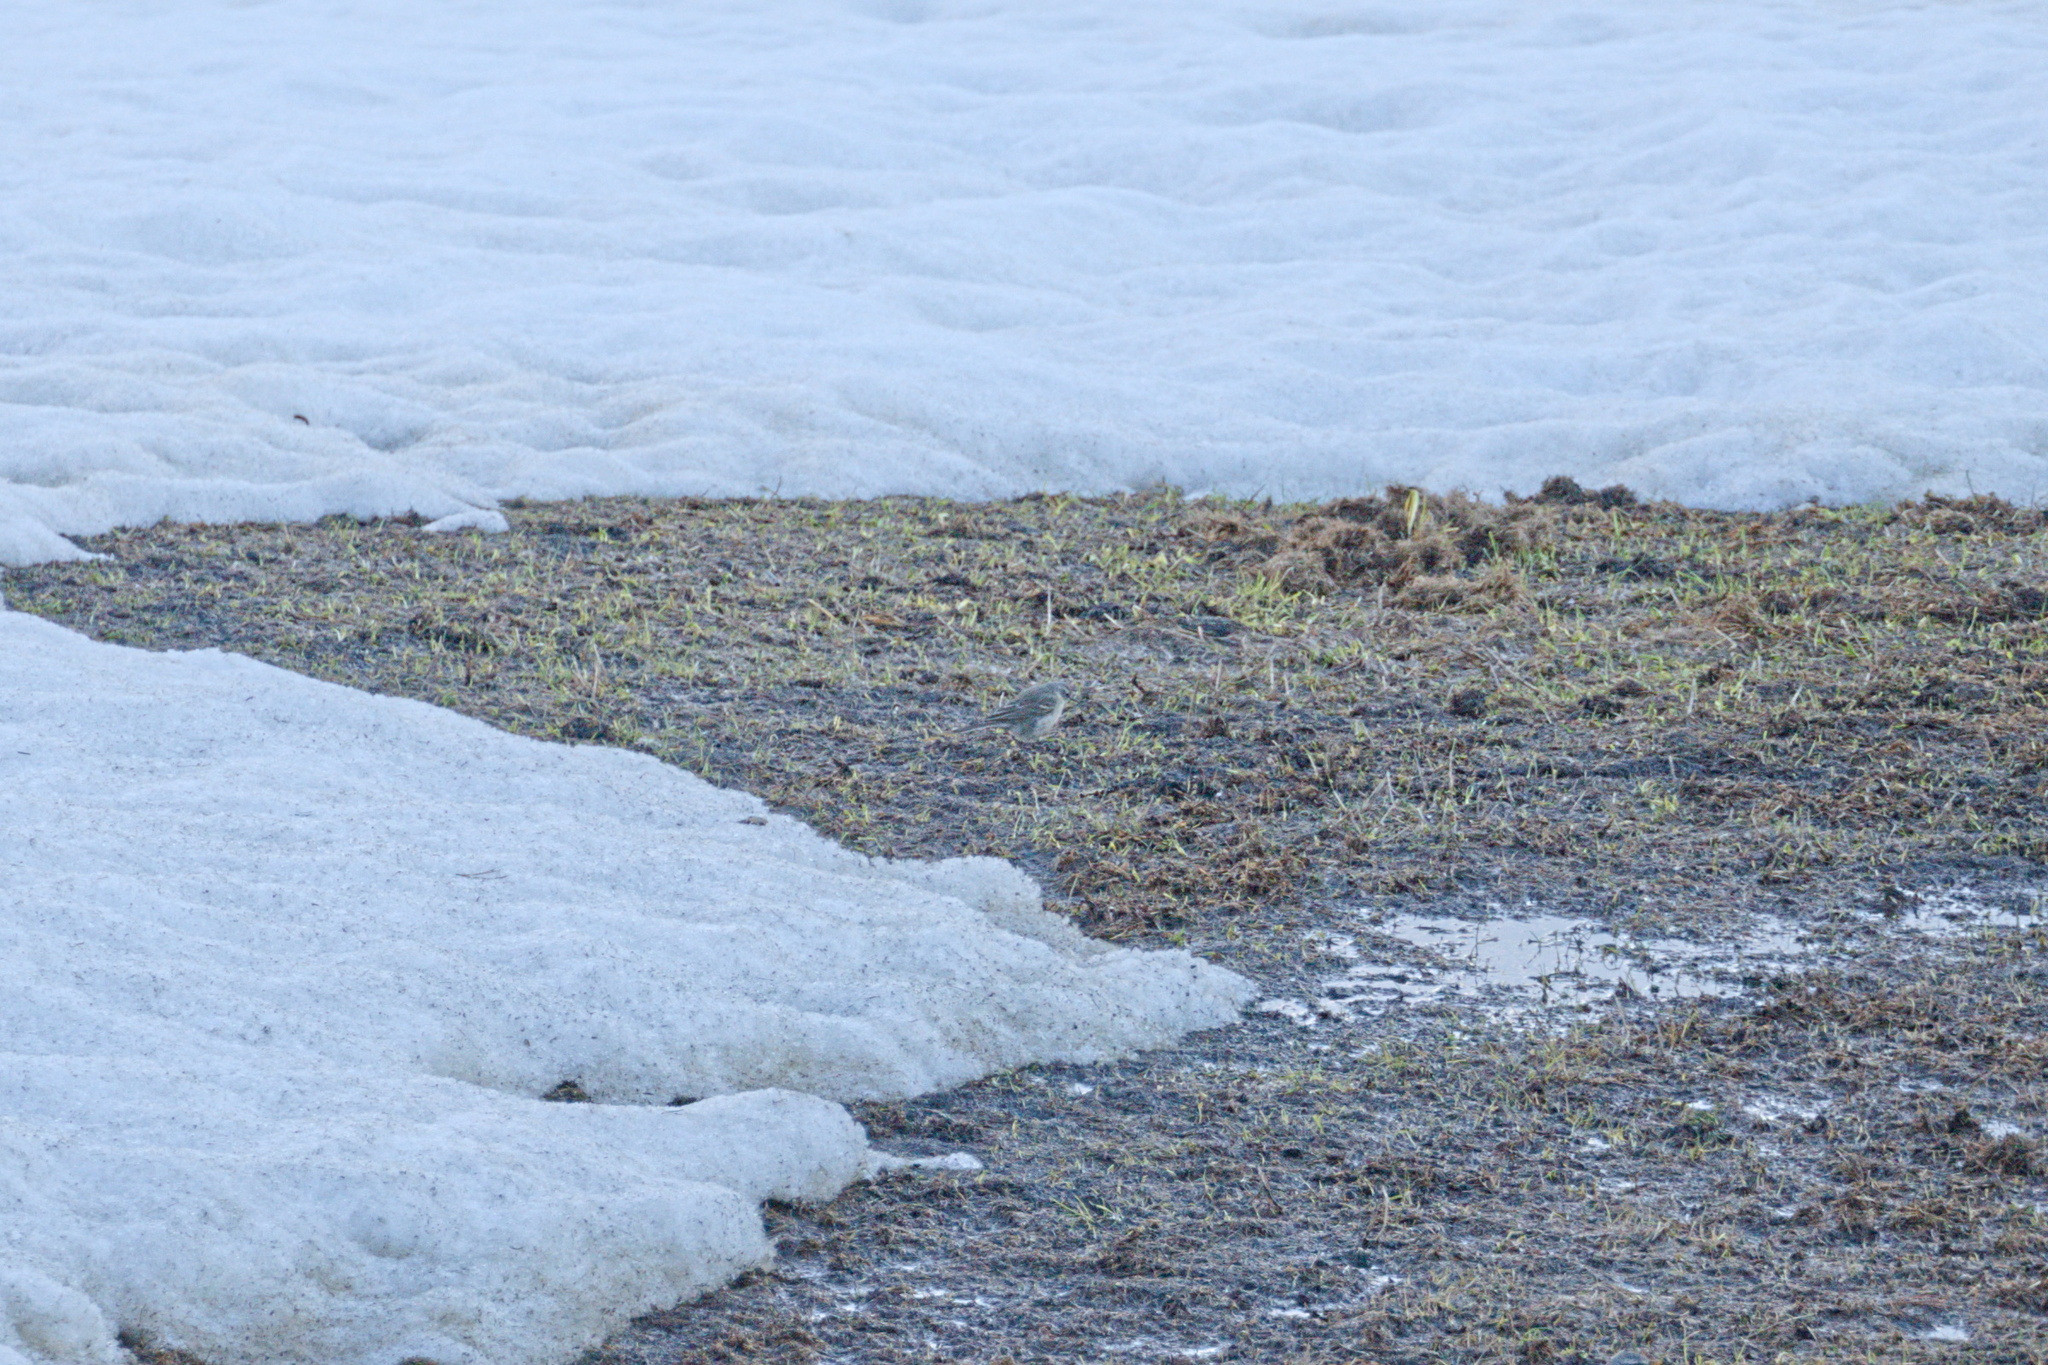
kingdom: Animalia
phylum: Chordata
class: Aves
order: Passeriformes
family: Motacillidae
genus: Anthus
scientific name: Anthus spinoletta
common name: Water pipit
